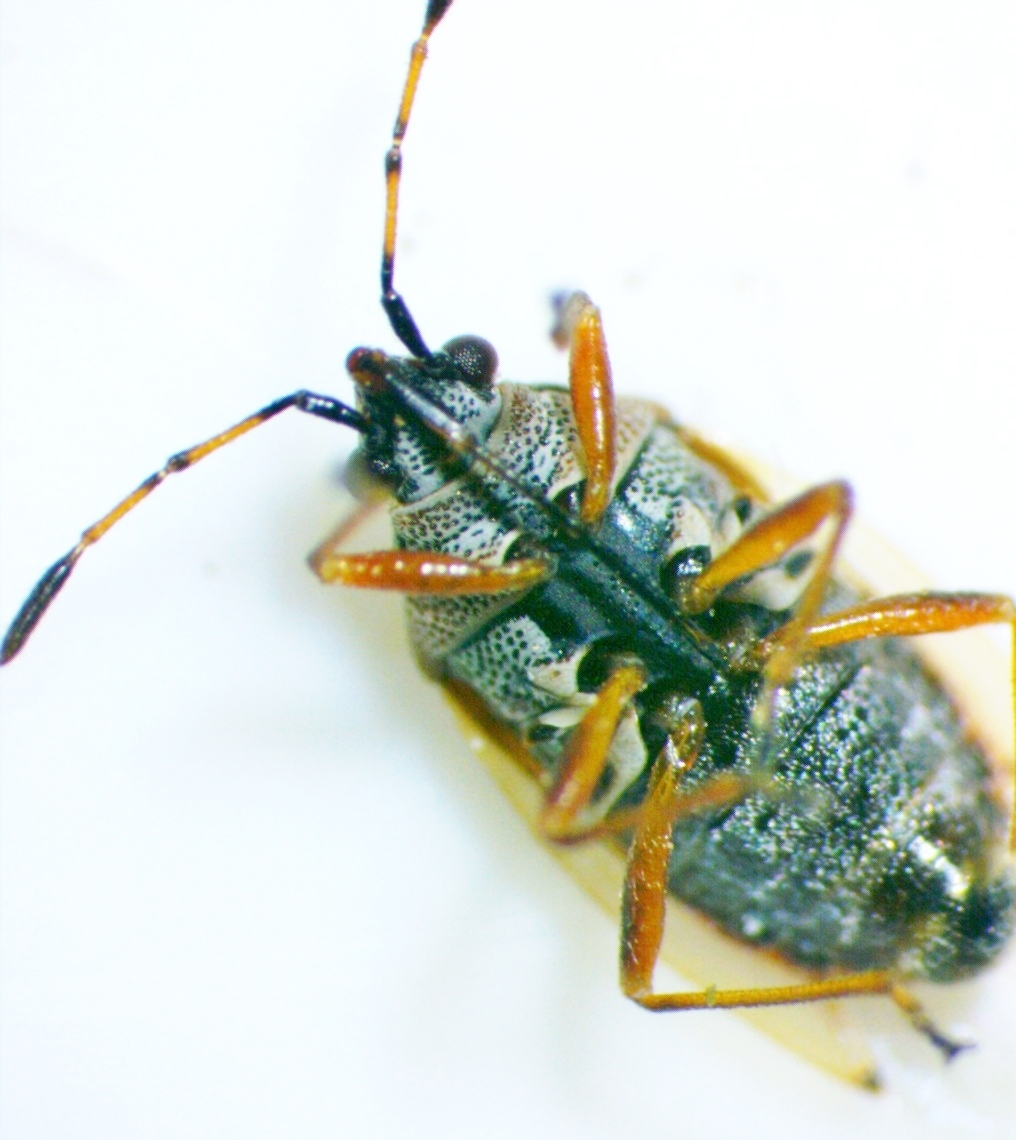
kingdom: Animalia
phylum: Arthropoda
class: Insecta
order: Hemiptera
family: Lygaeidae
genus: Kleidocerys
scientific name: Kleidocerys resedae
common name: Birch catkin bug
